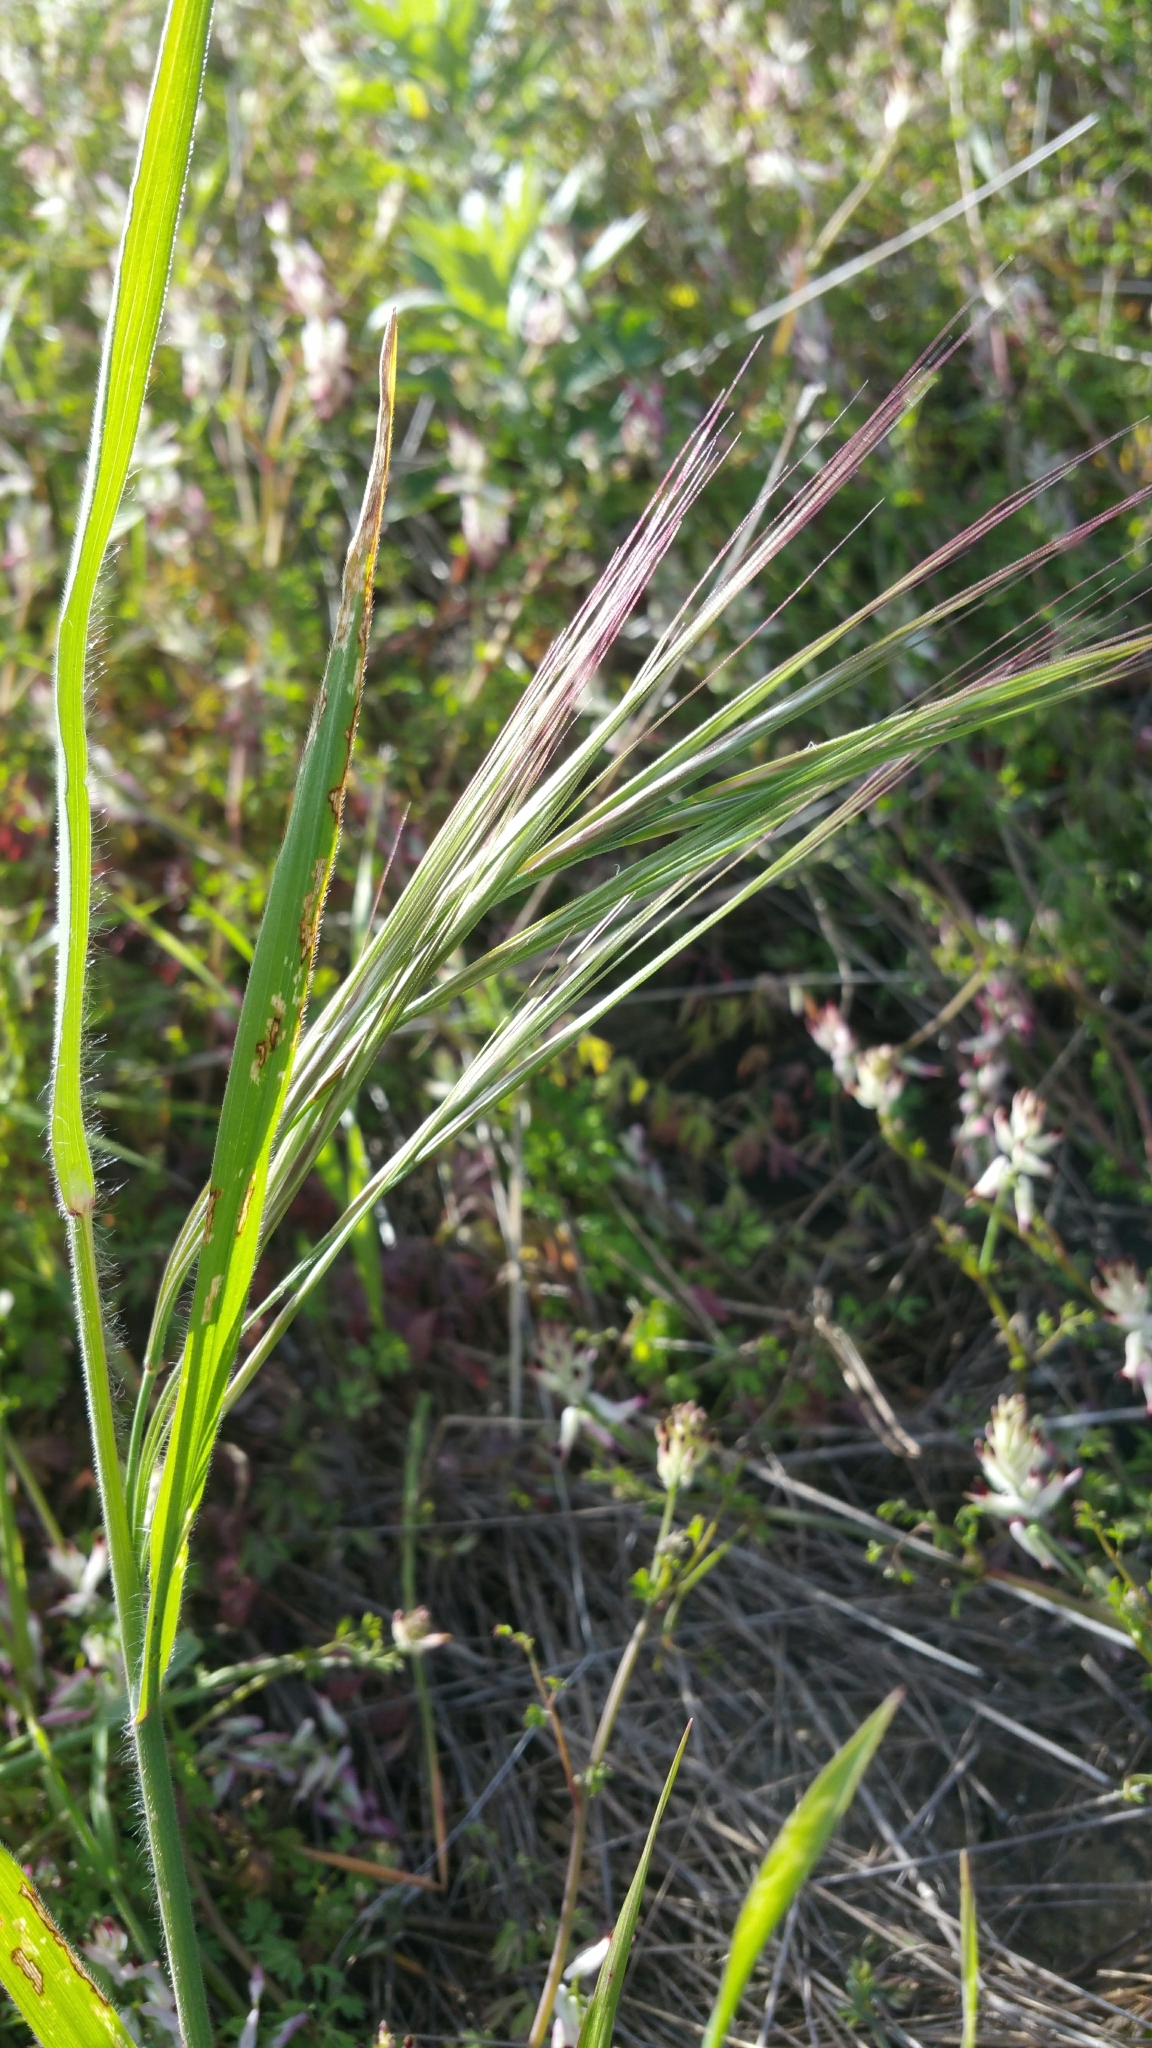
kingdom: Plantae
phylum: Tracheophyta
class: Liliopsida
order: Poales
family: Poaceae
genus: Bromus
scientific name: Bromus diandrus
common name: Ripgut brome
